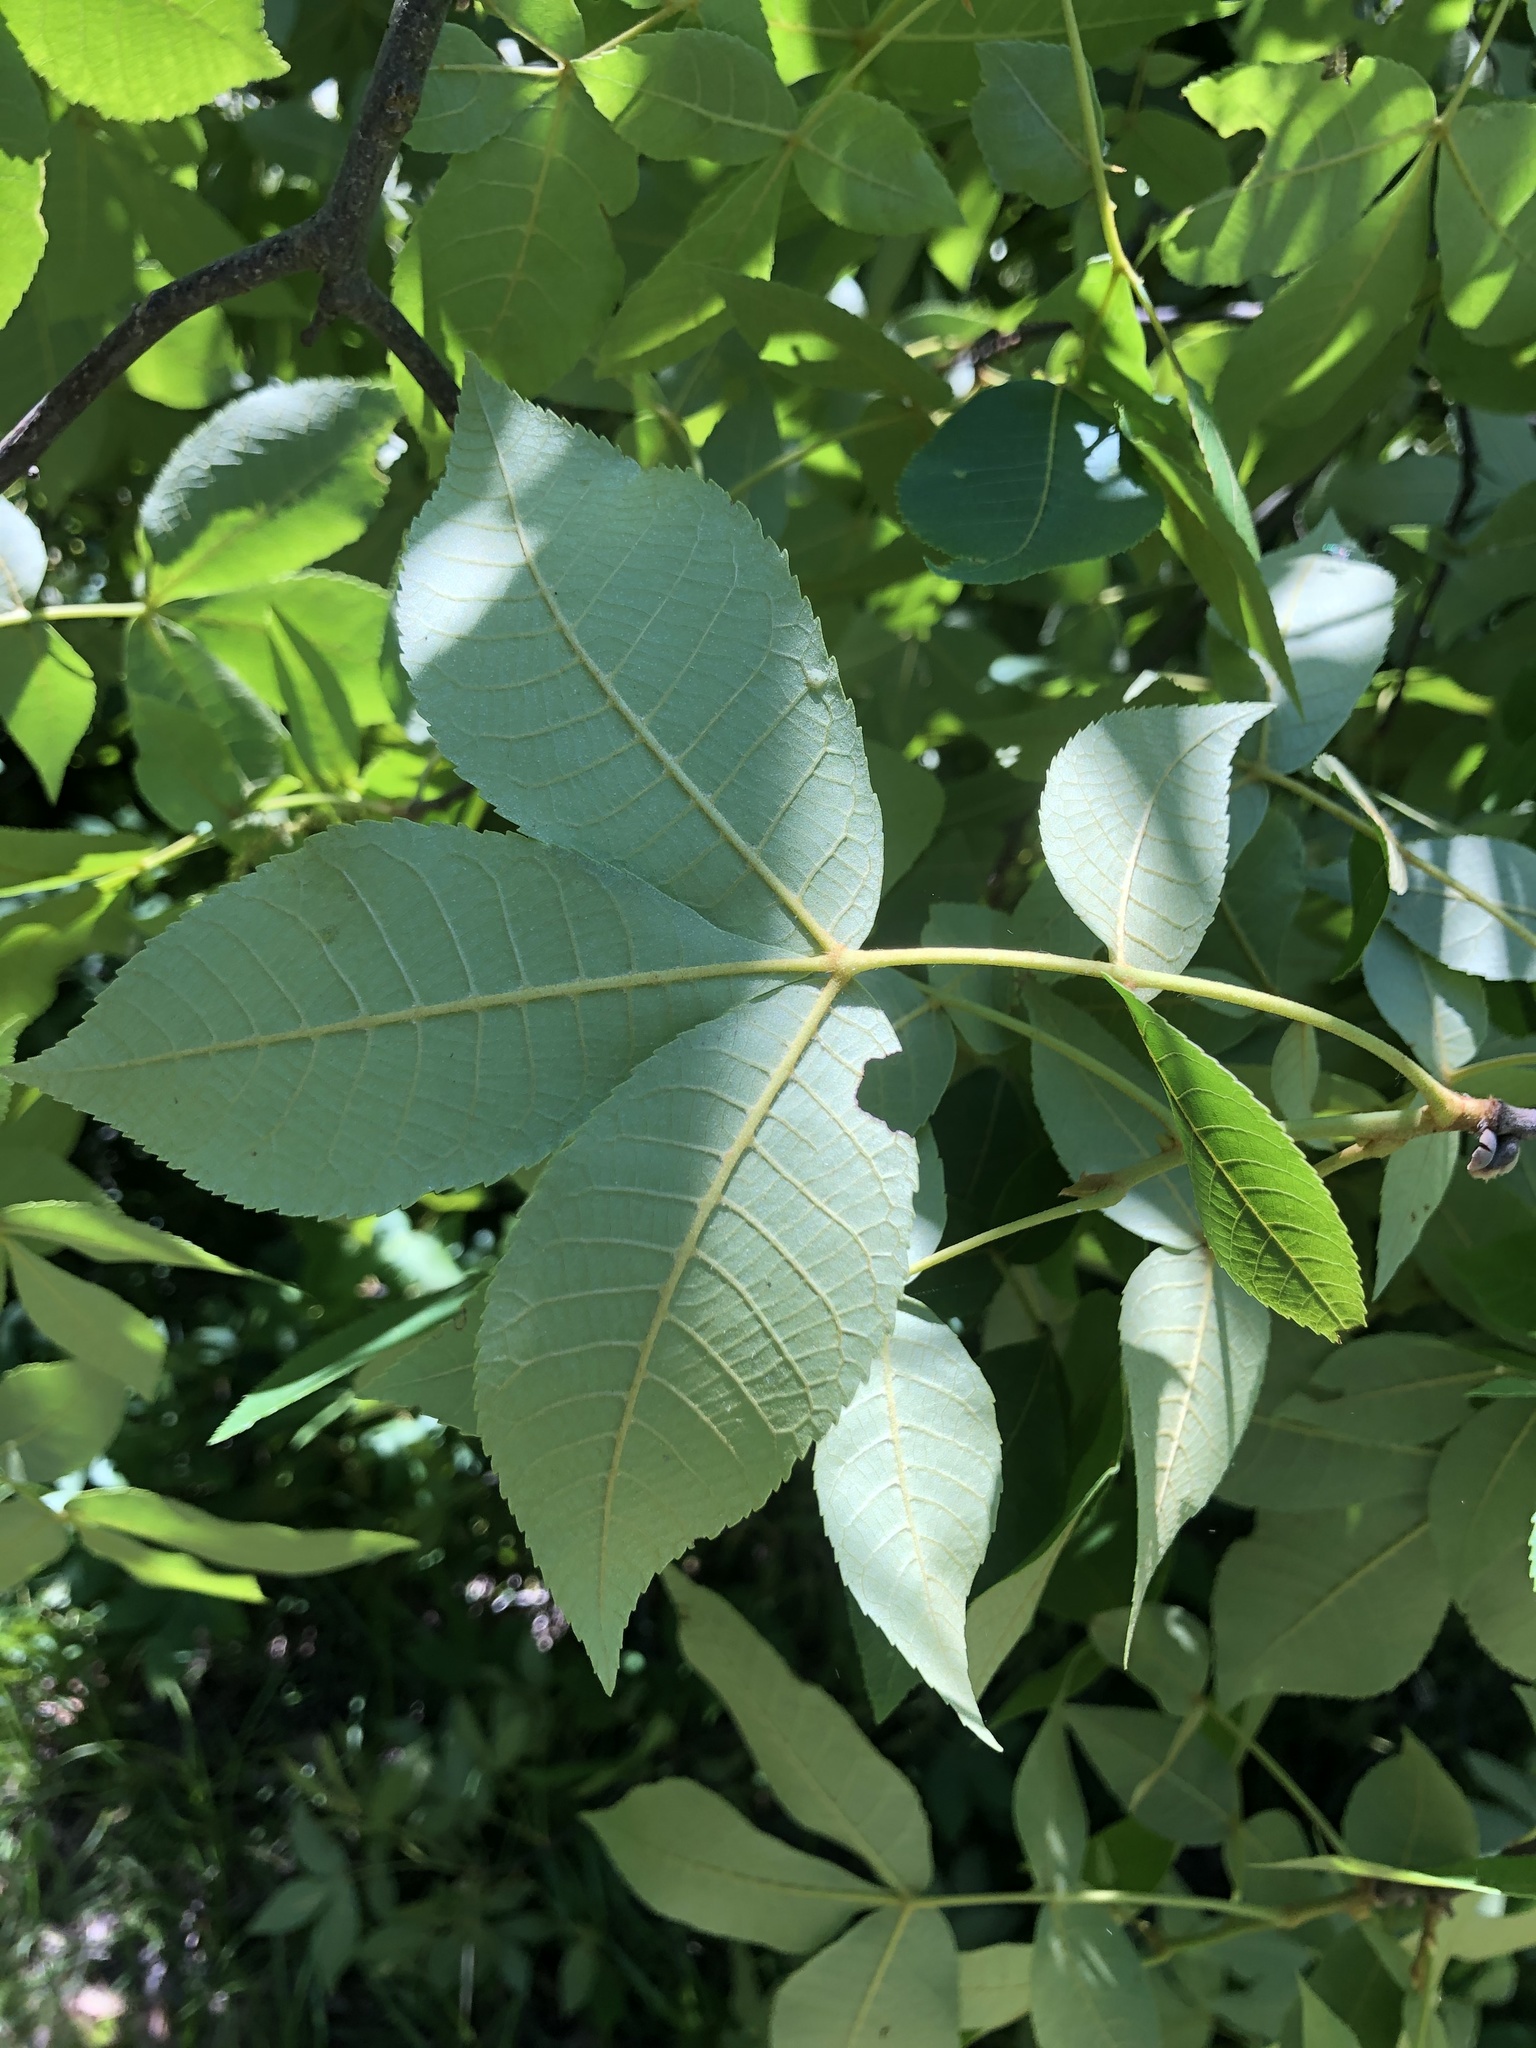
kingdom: Plantae
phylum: Tracheophyta
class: Magnoliopsida
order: Fagales
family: Juglandaceae
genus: Carya
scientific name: Carya glabra
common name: Pignut hickory
